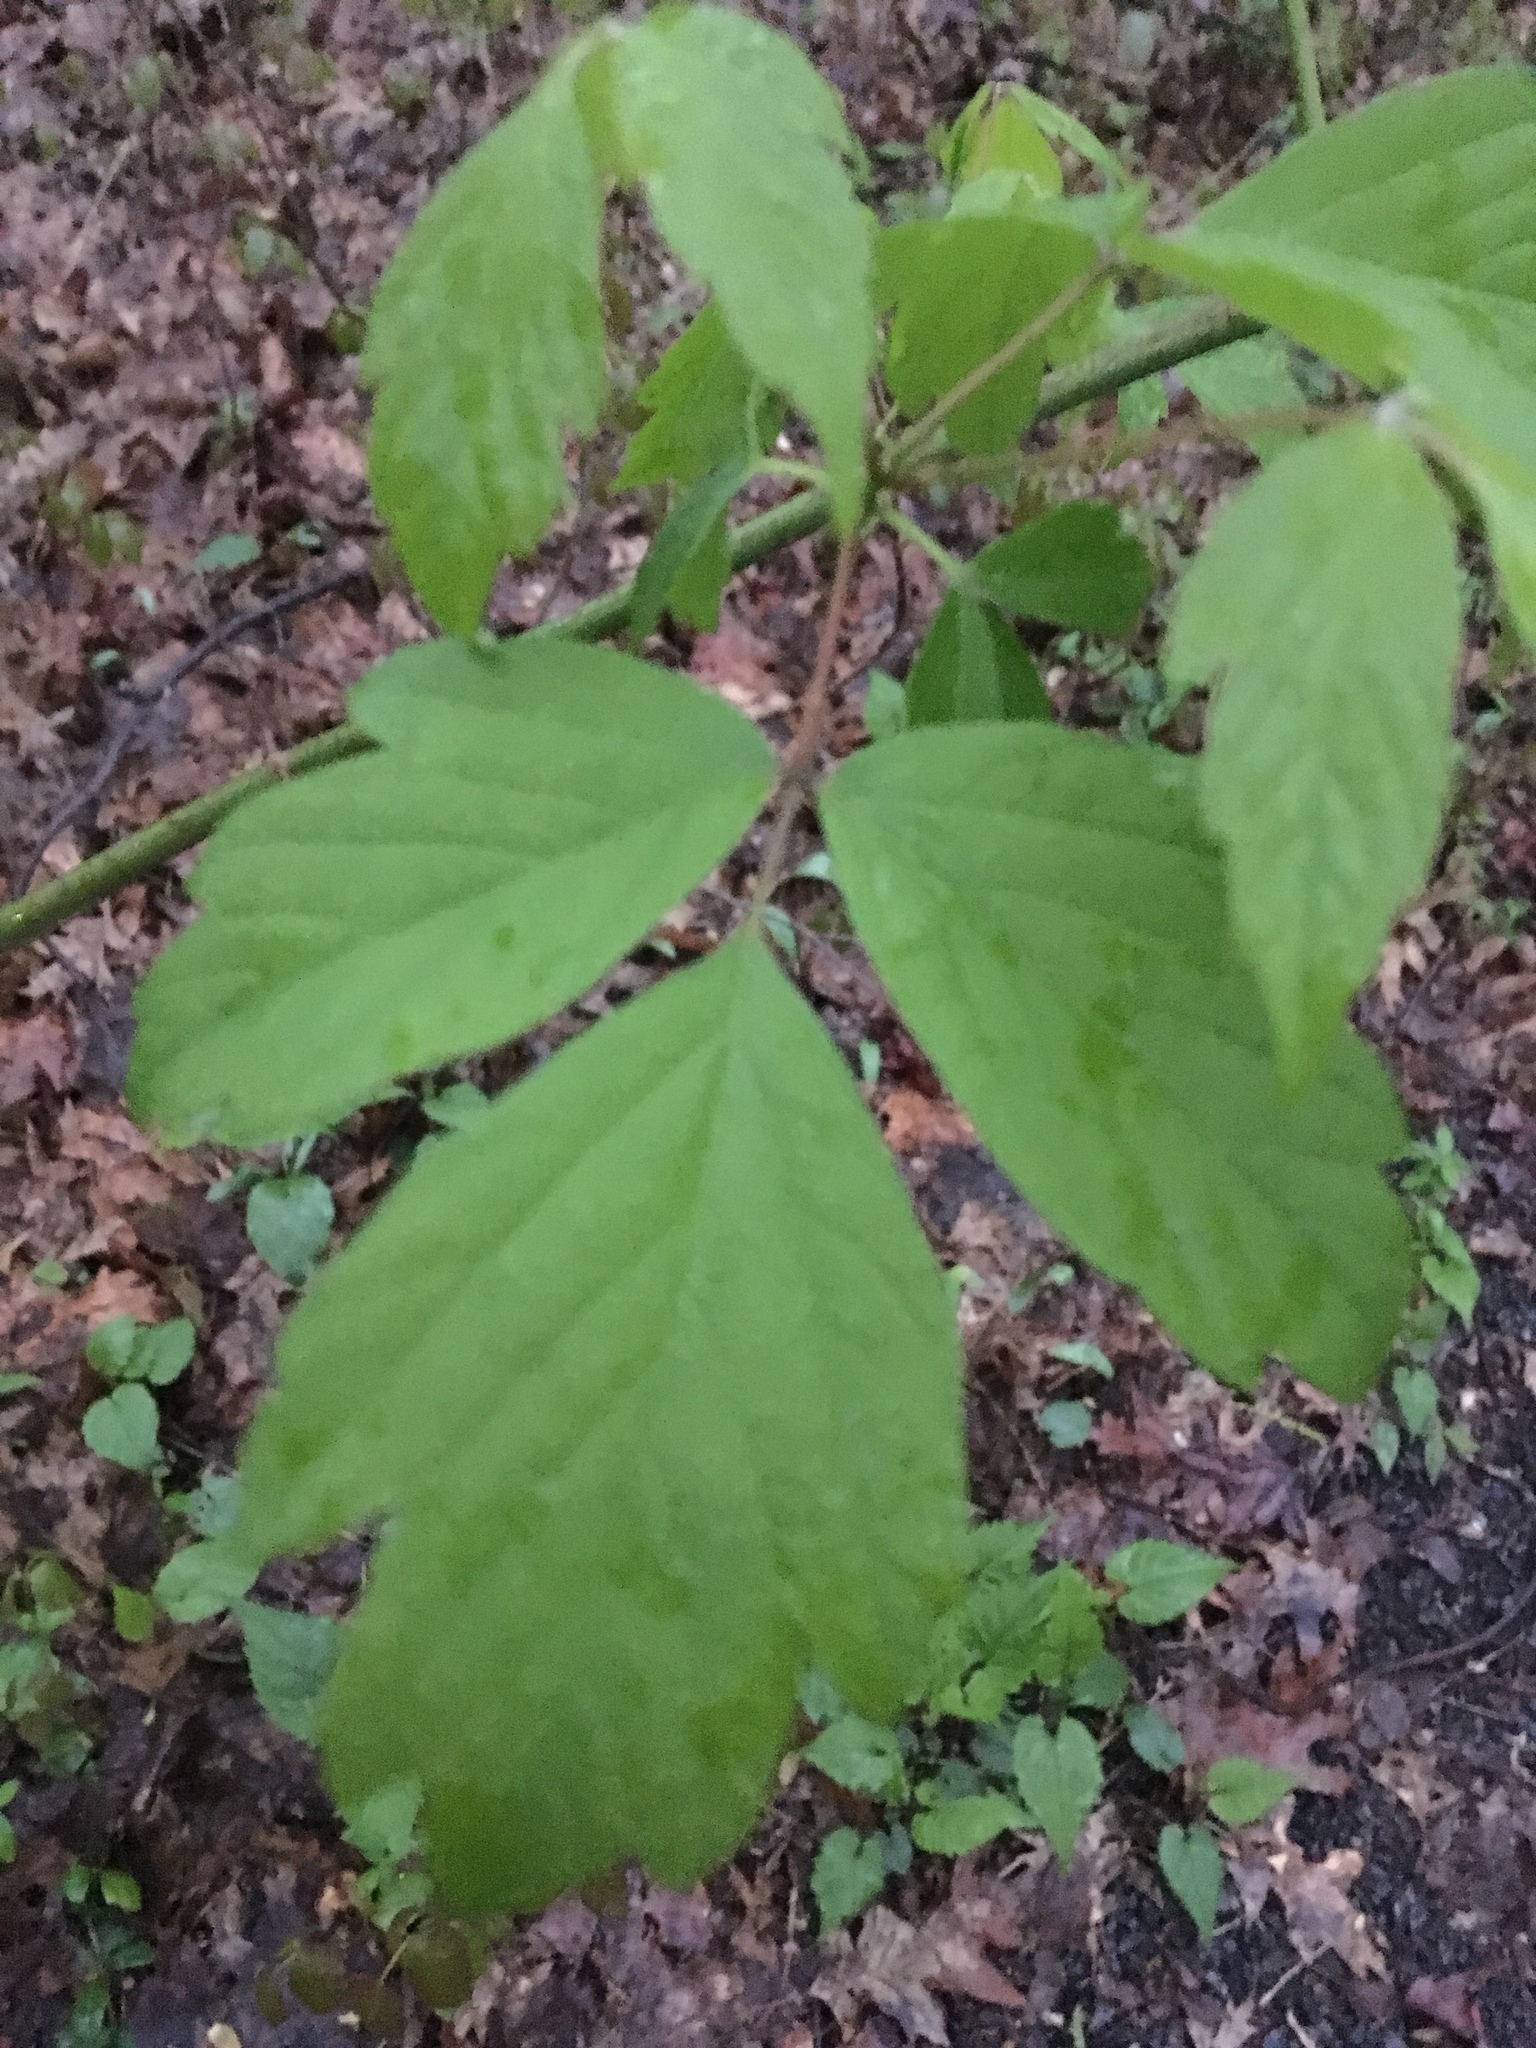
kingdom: Plantae
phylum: Tracheophyta
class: Magnoliopsida
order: Sapindales
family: Sapindaceae
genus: Acer
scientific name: Acer negundo
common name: Ashleaf maple
